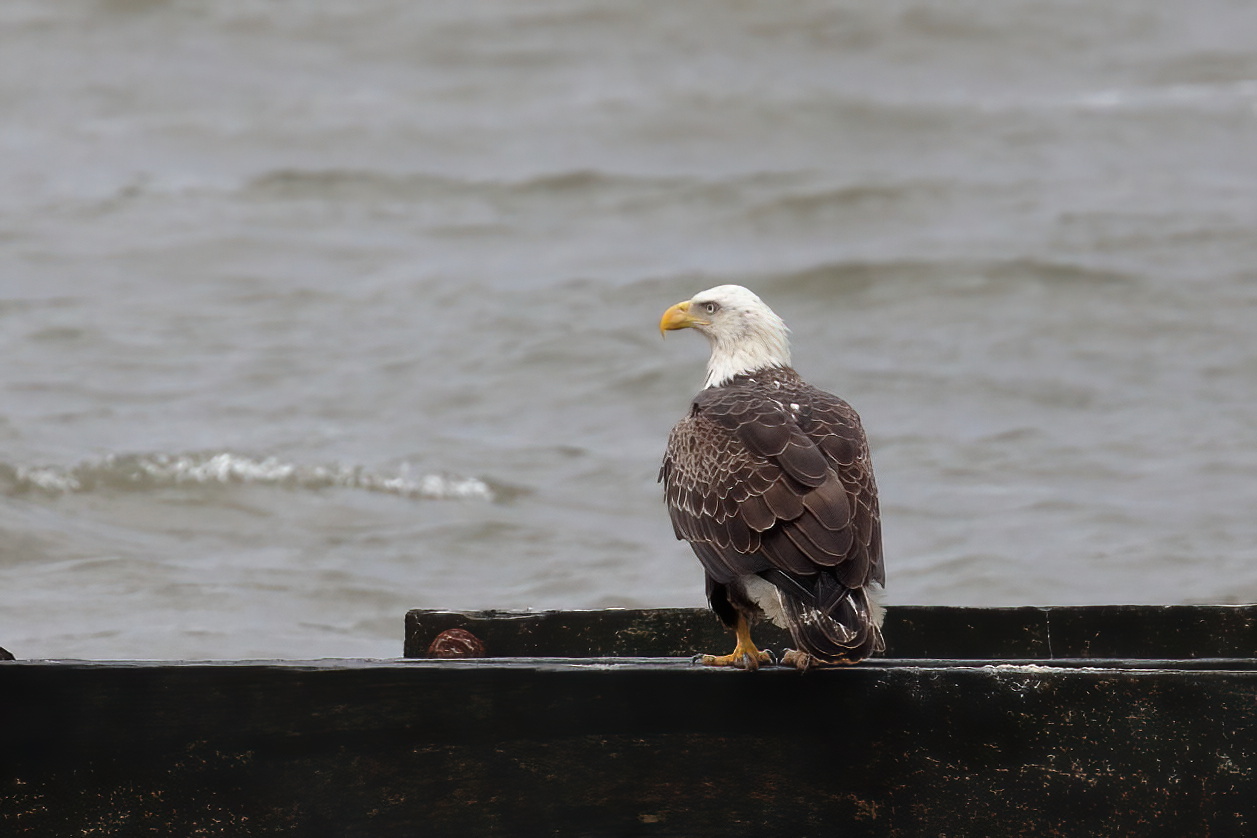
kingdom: Animalia
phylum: Chordata
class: Aves
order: Accipitriformes
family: Accipitridae
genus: Haliaeetus
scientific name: Haliaeetus leucocephalus
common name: Bald eagle
